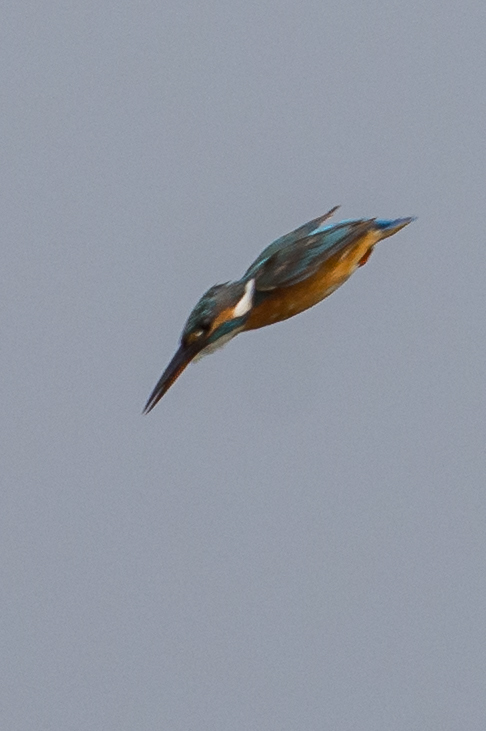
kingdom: Animalia
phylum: Chordata
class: Aves
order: Coraciiformes
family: Alcedinidae
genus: Alcedo
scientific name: Alcedo atthis
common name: Common kingfisher
